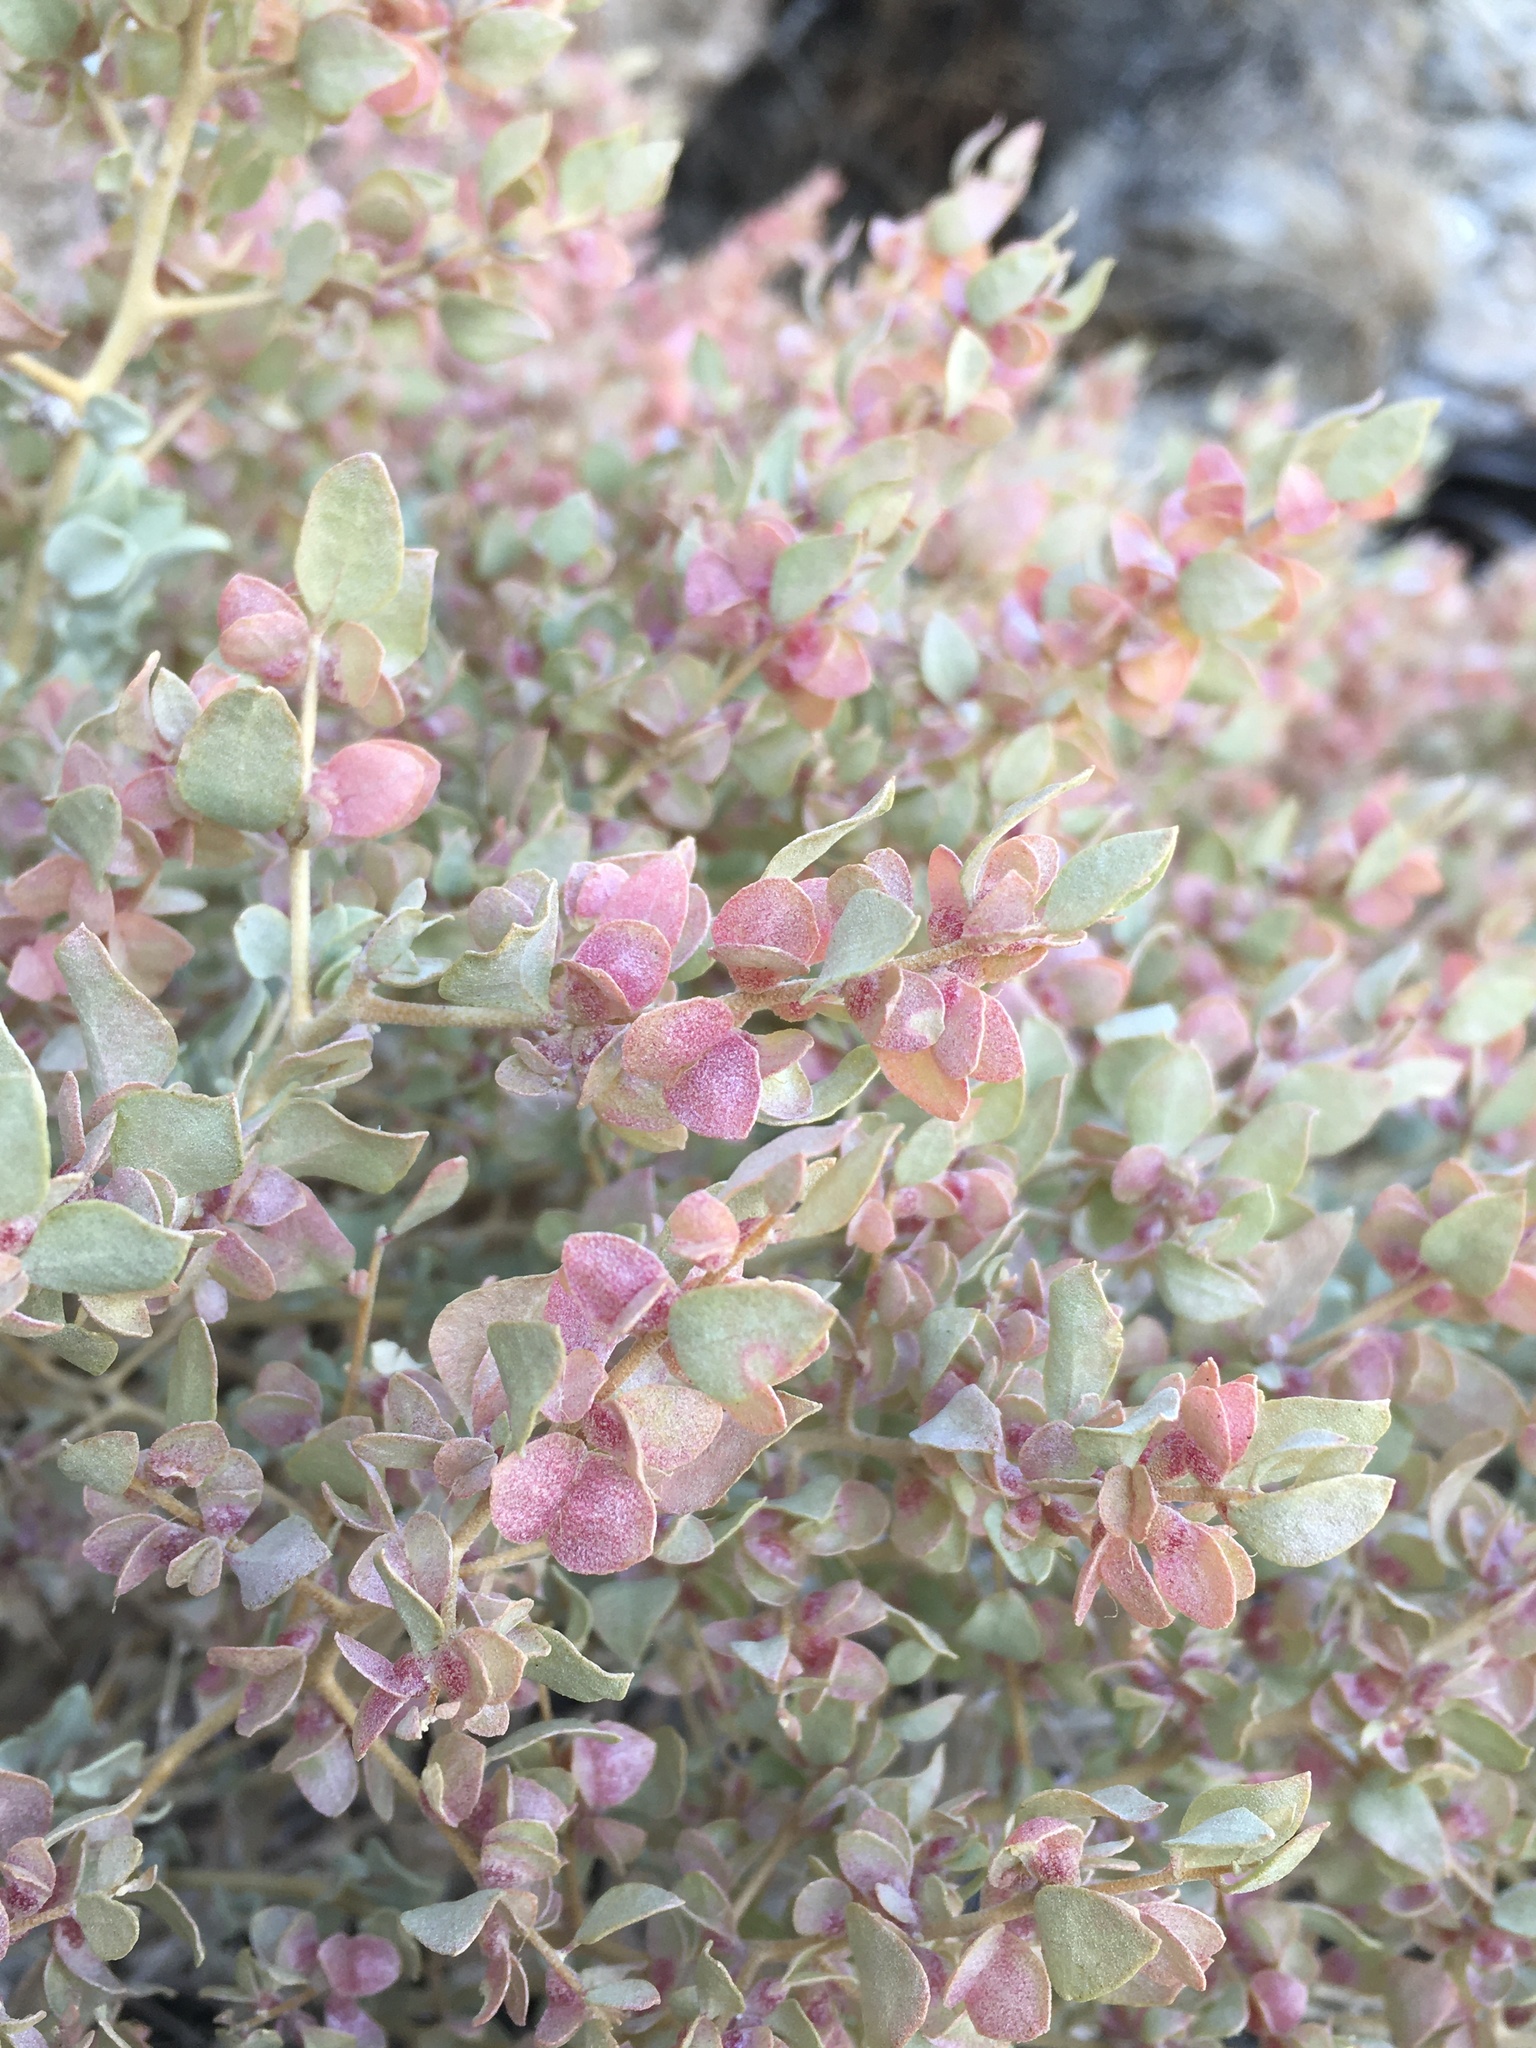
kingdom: Plantae
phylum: Tracheophyta
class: Magnoliopsida
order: Caryophyllales
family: Amaranthaceae
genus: Atriplex
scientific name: Atriplex confertifolia
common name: Shadscale
